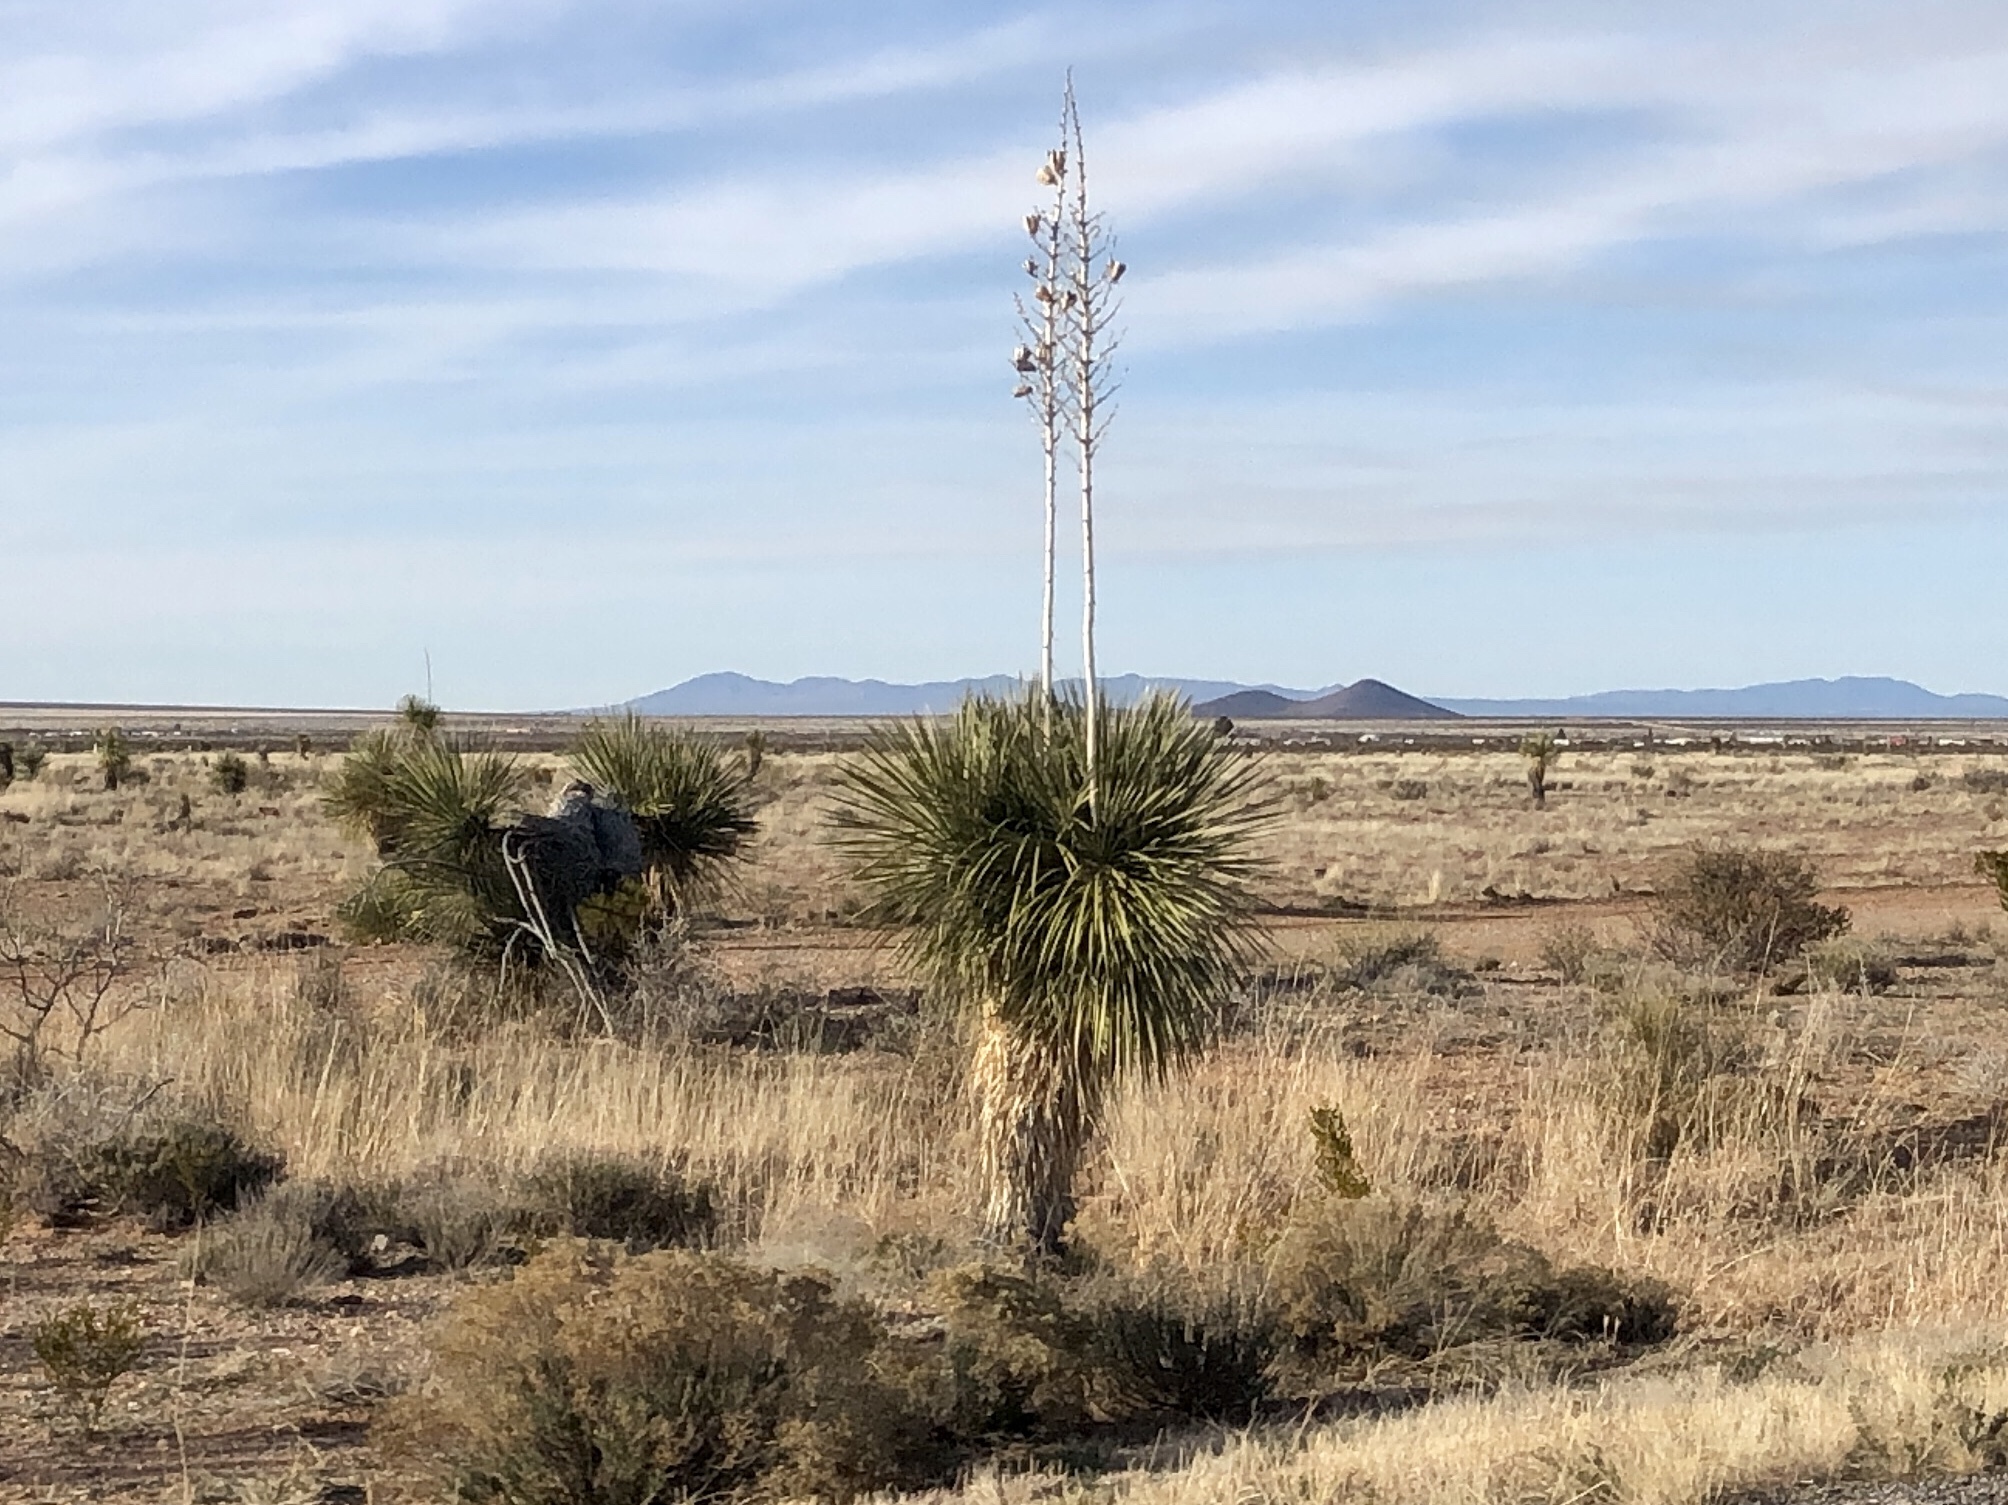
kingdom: Plantae
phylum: Tracheophyta
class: Liliopsida
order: Asparagales
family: Asparagaceae
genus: Yucca
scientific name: Yucca elata
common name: Palmella
